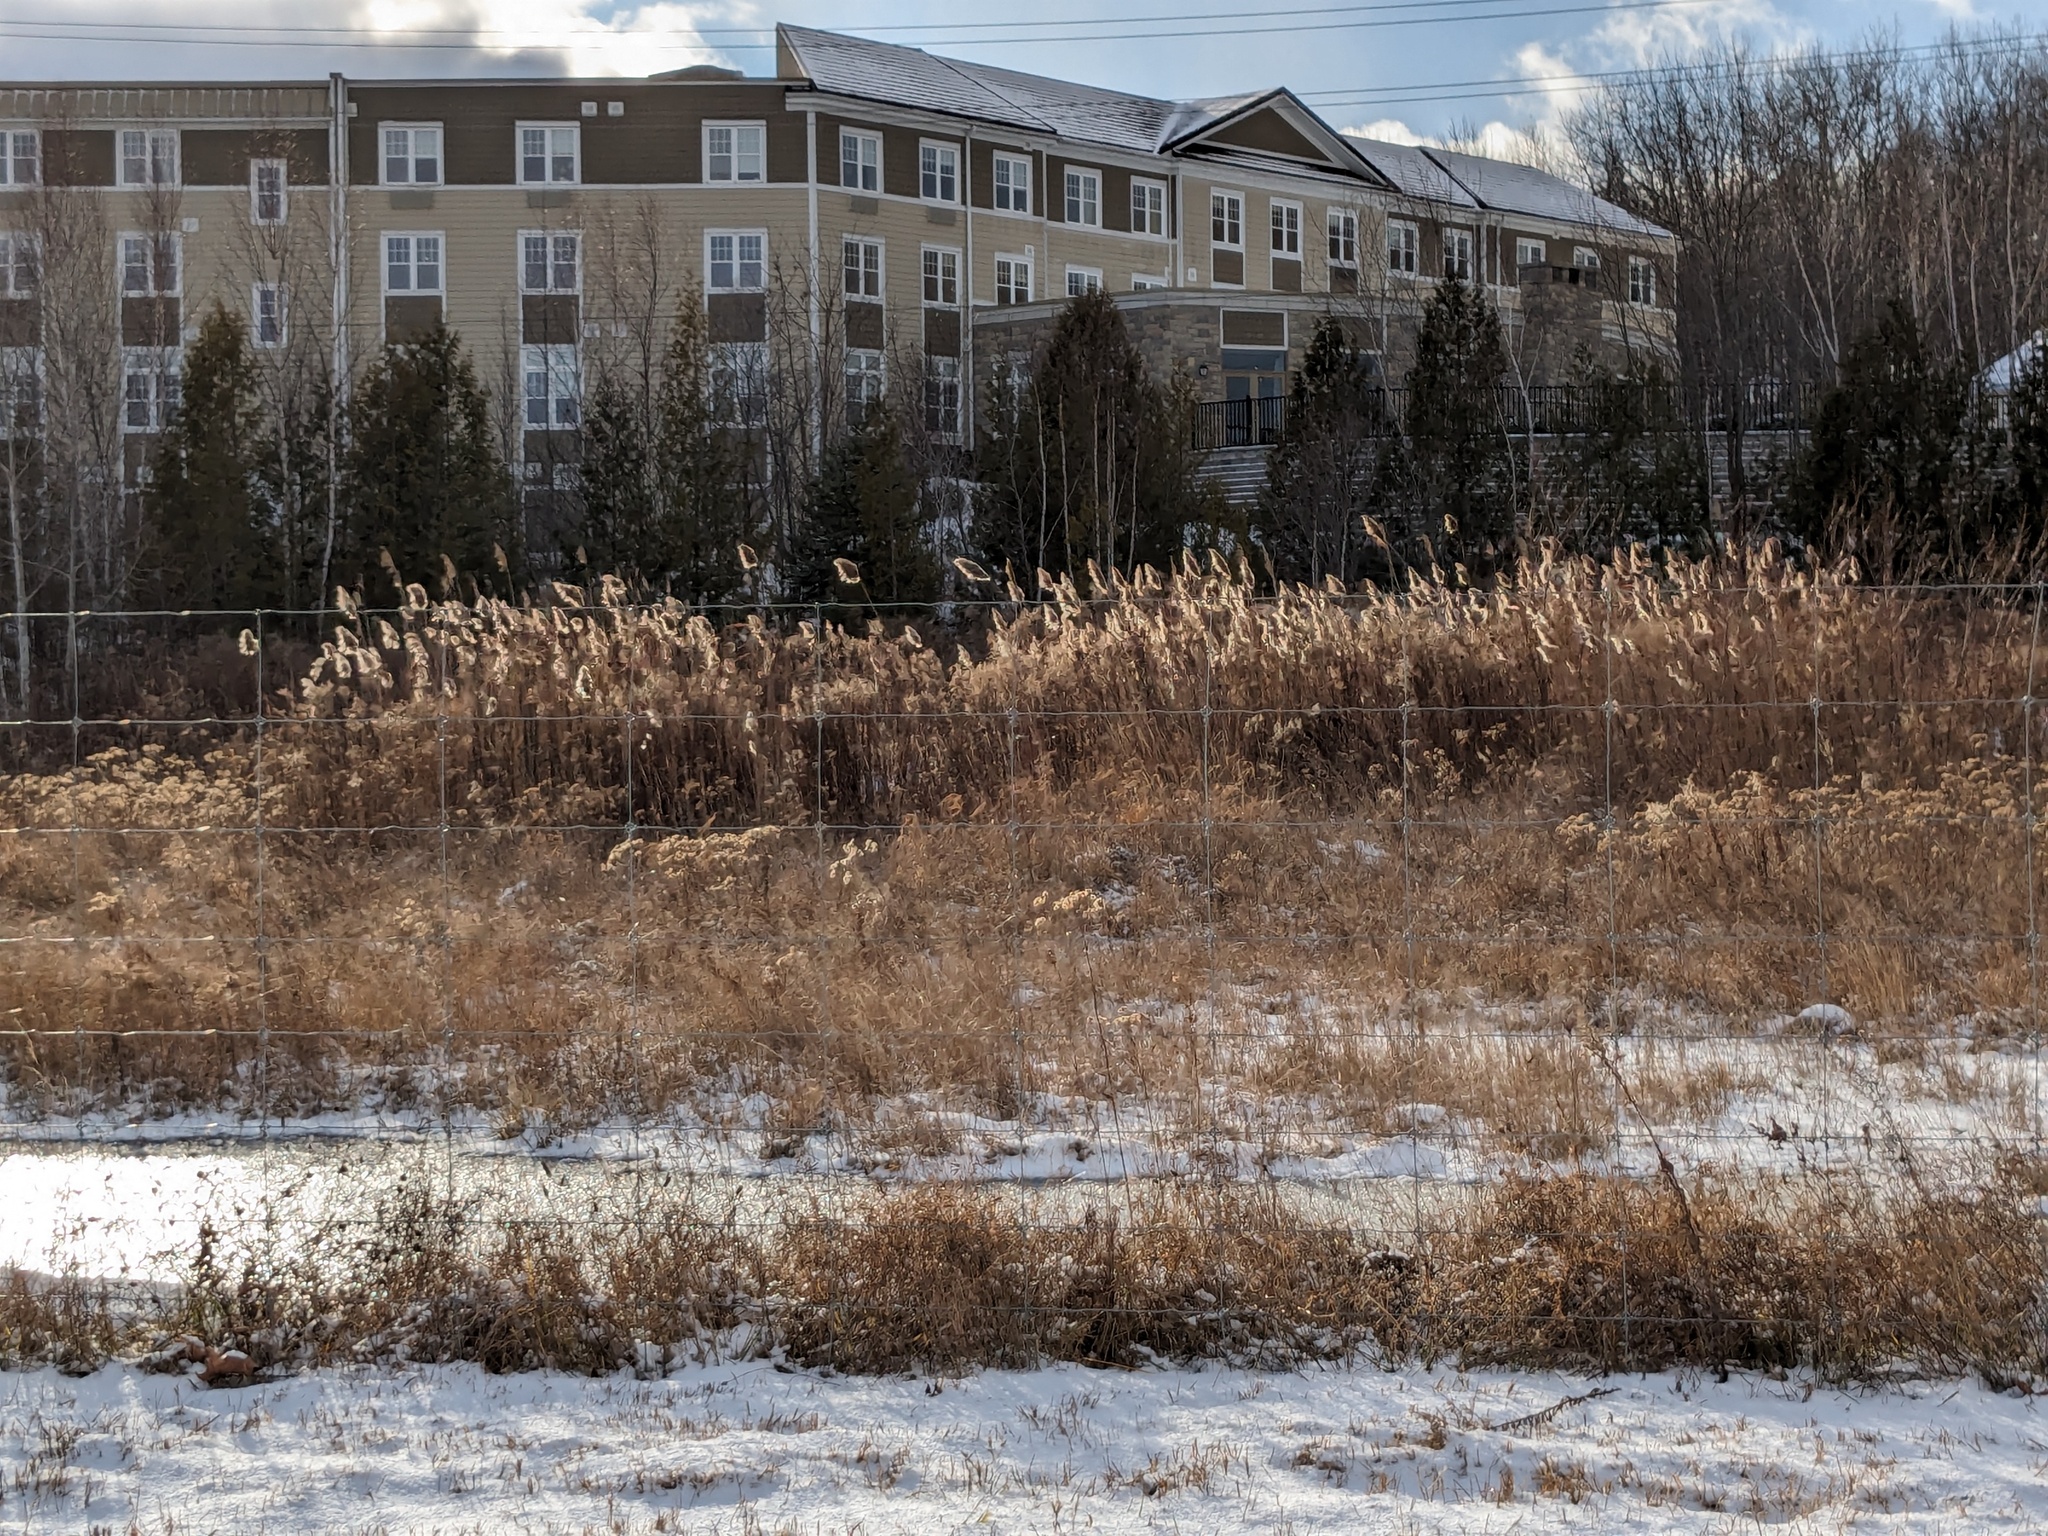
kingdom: Plantae
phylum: Tracheophyta
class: Liliopsida
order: Poales
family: Poaceae
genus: Phragmites
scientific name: Phragmites australis
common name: Common reed
